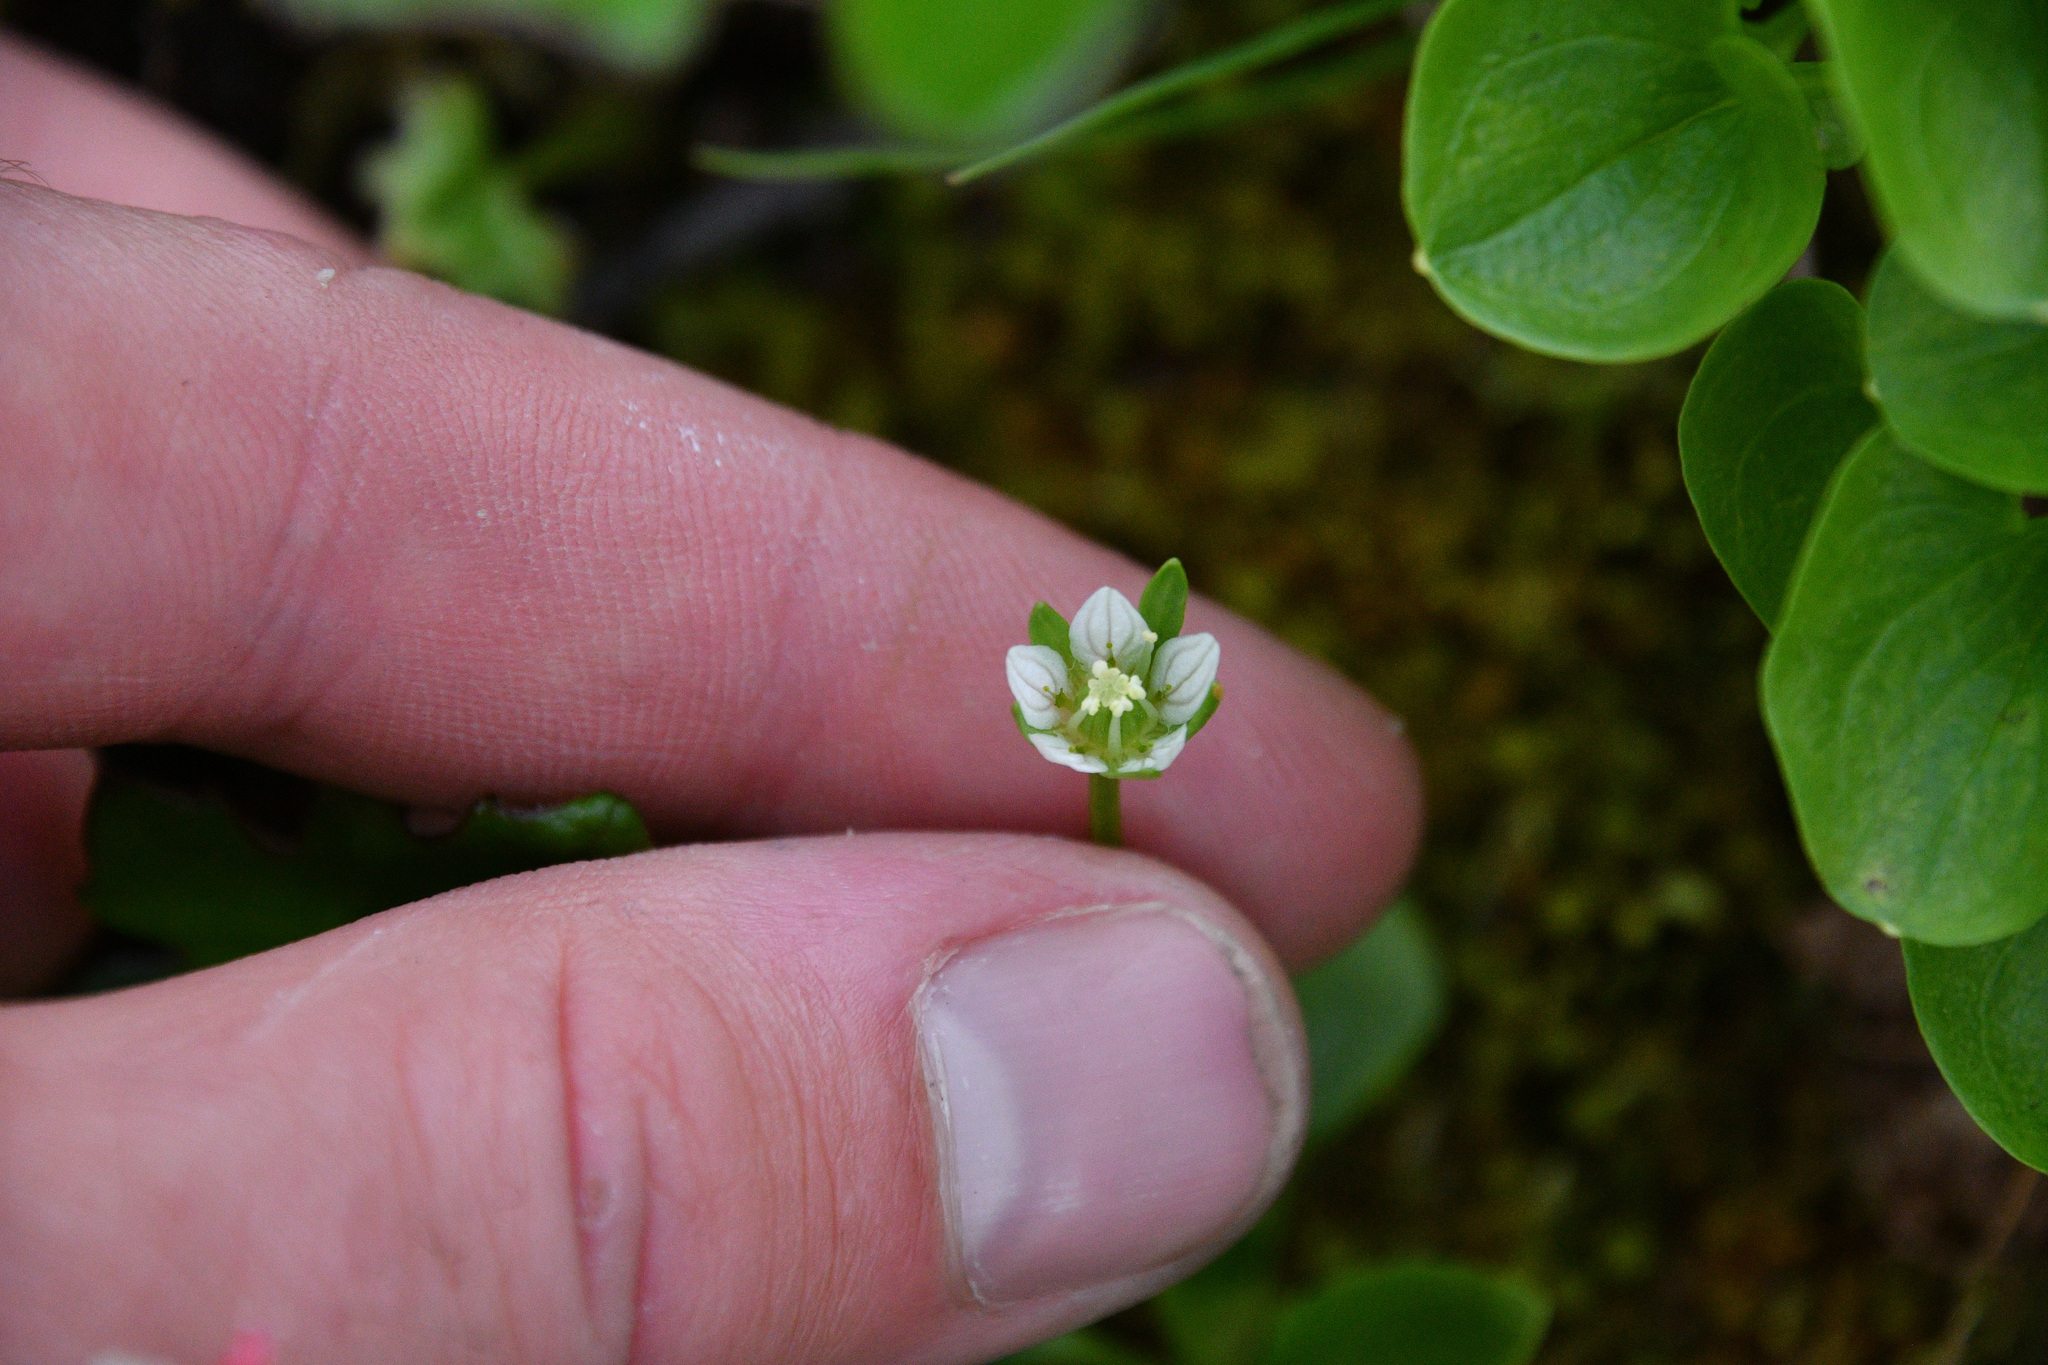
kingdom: Plantae
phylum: Tracheophyta
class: Magnoliopsida
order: Celastrales
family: Parnassiaceae
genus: Parnassia
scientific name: Parnassia kotzebuei
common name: Kotzebue's grass-of-parnassus
